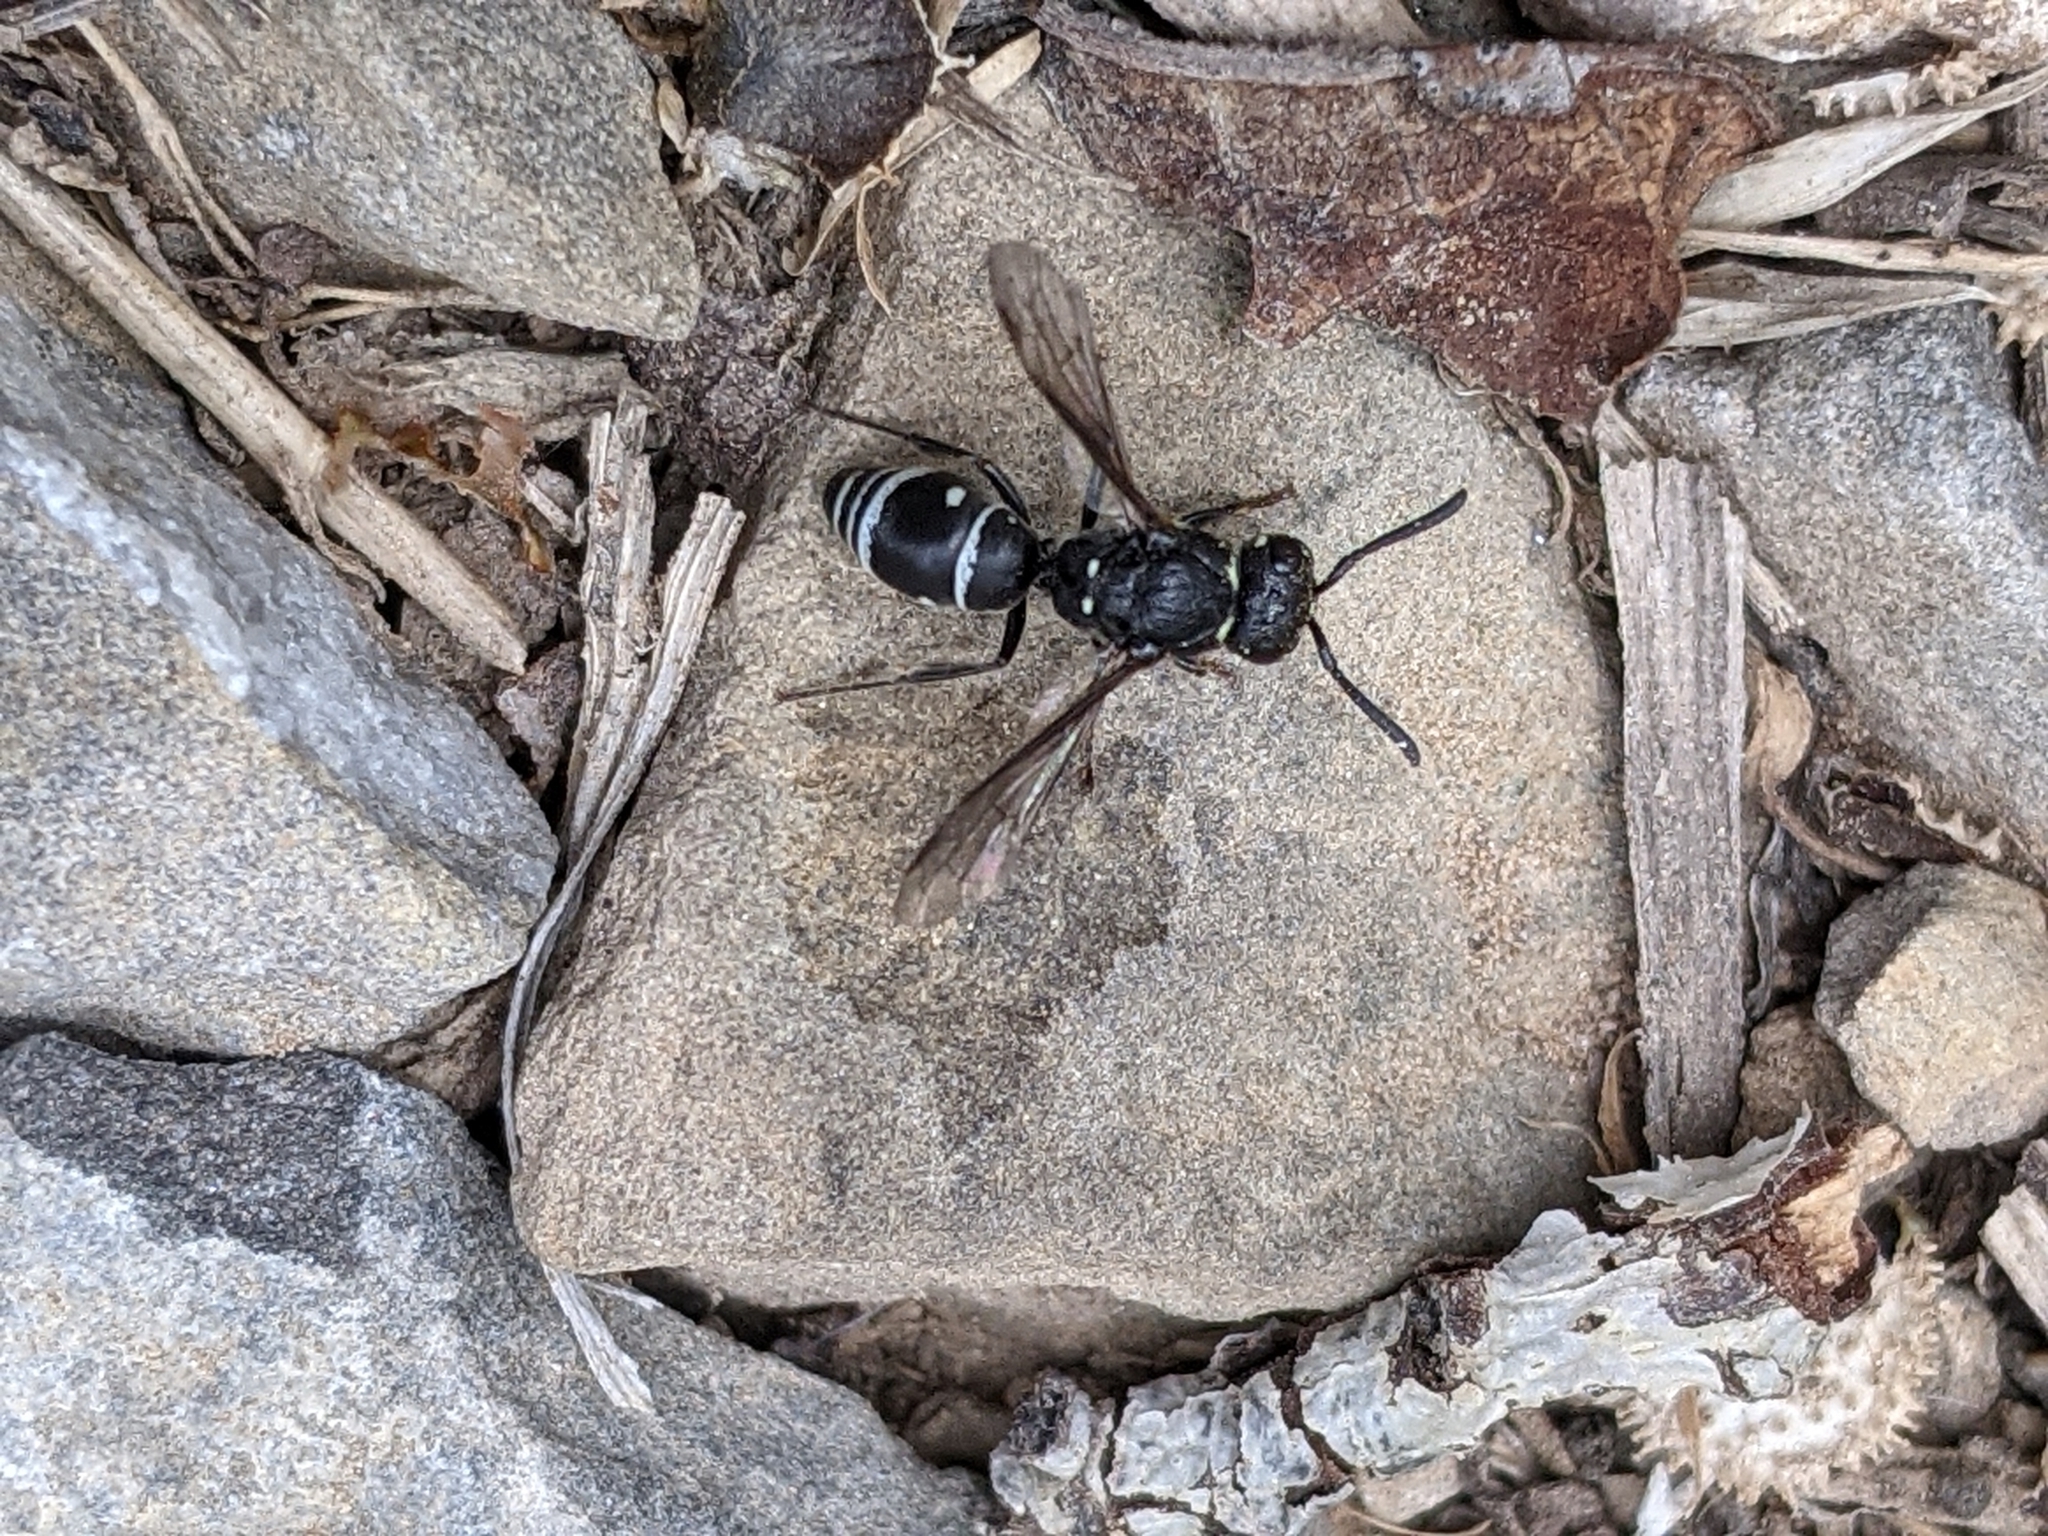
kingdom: Animalia
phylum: Arthropoda
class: Insecta
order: Hymenoptera
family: Eumenidae
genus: Rhynchalastor
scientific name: Rhynchalastor canus
